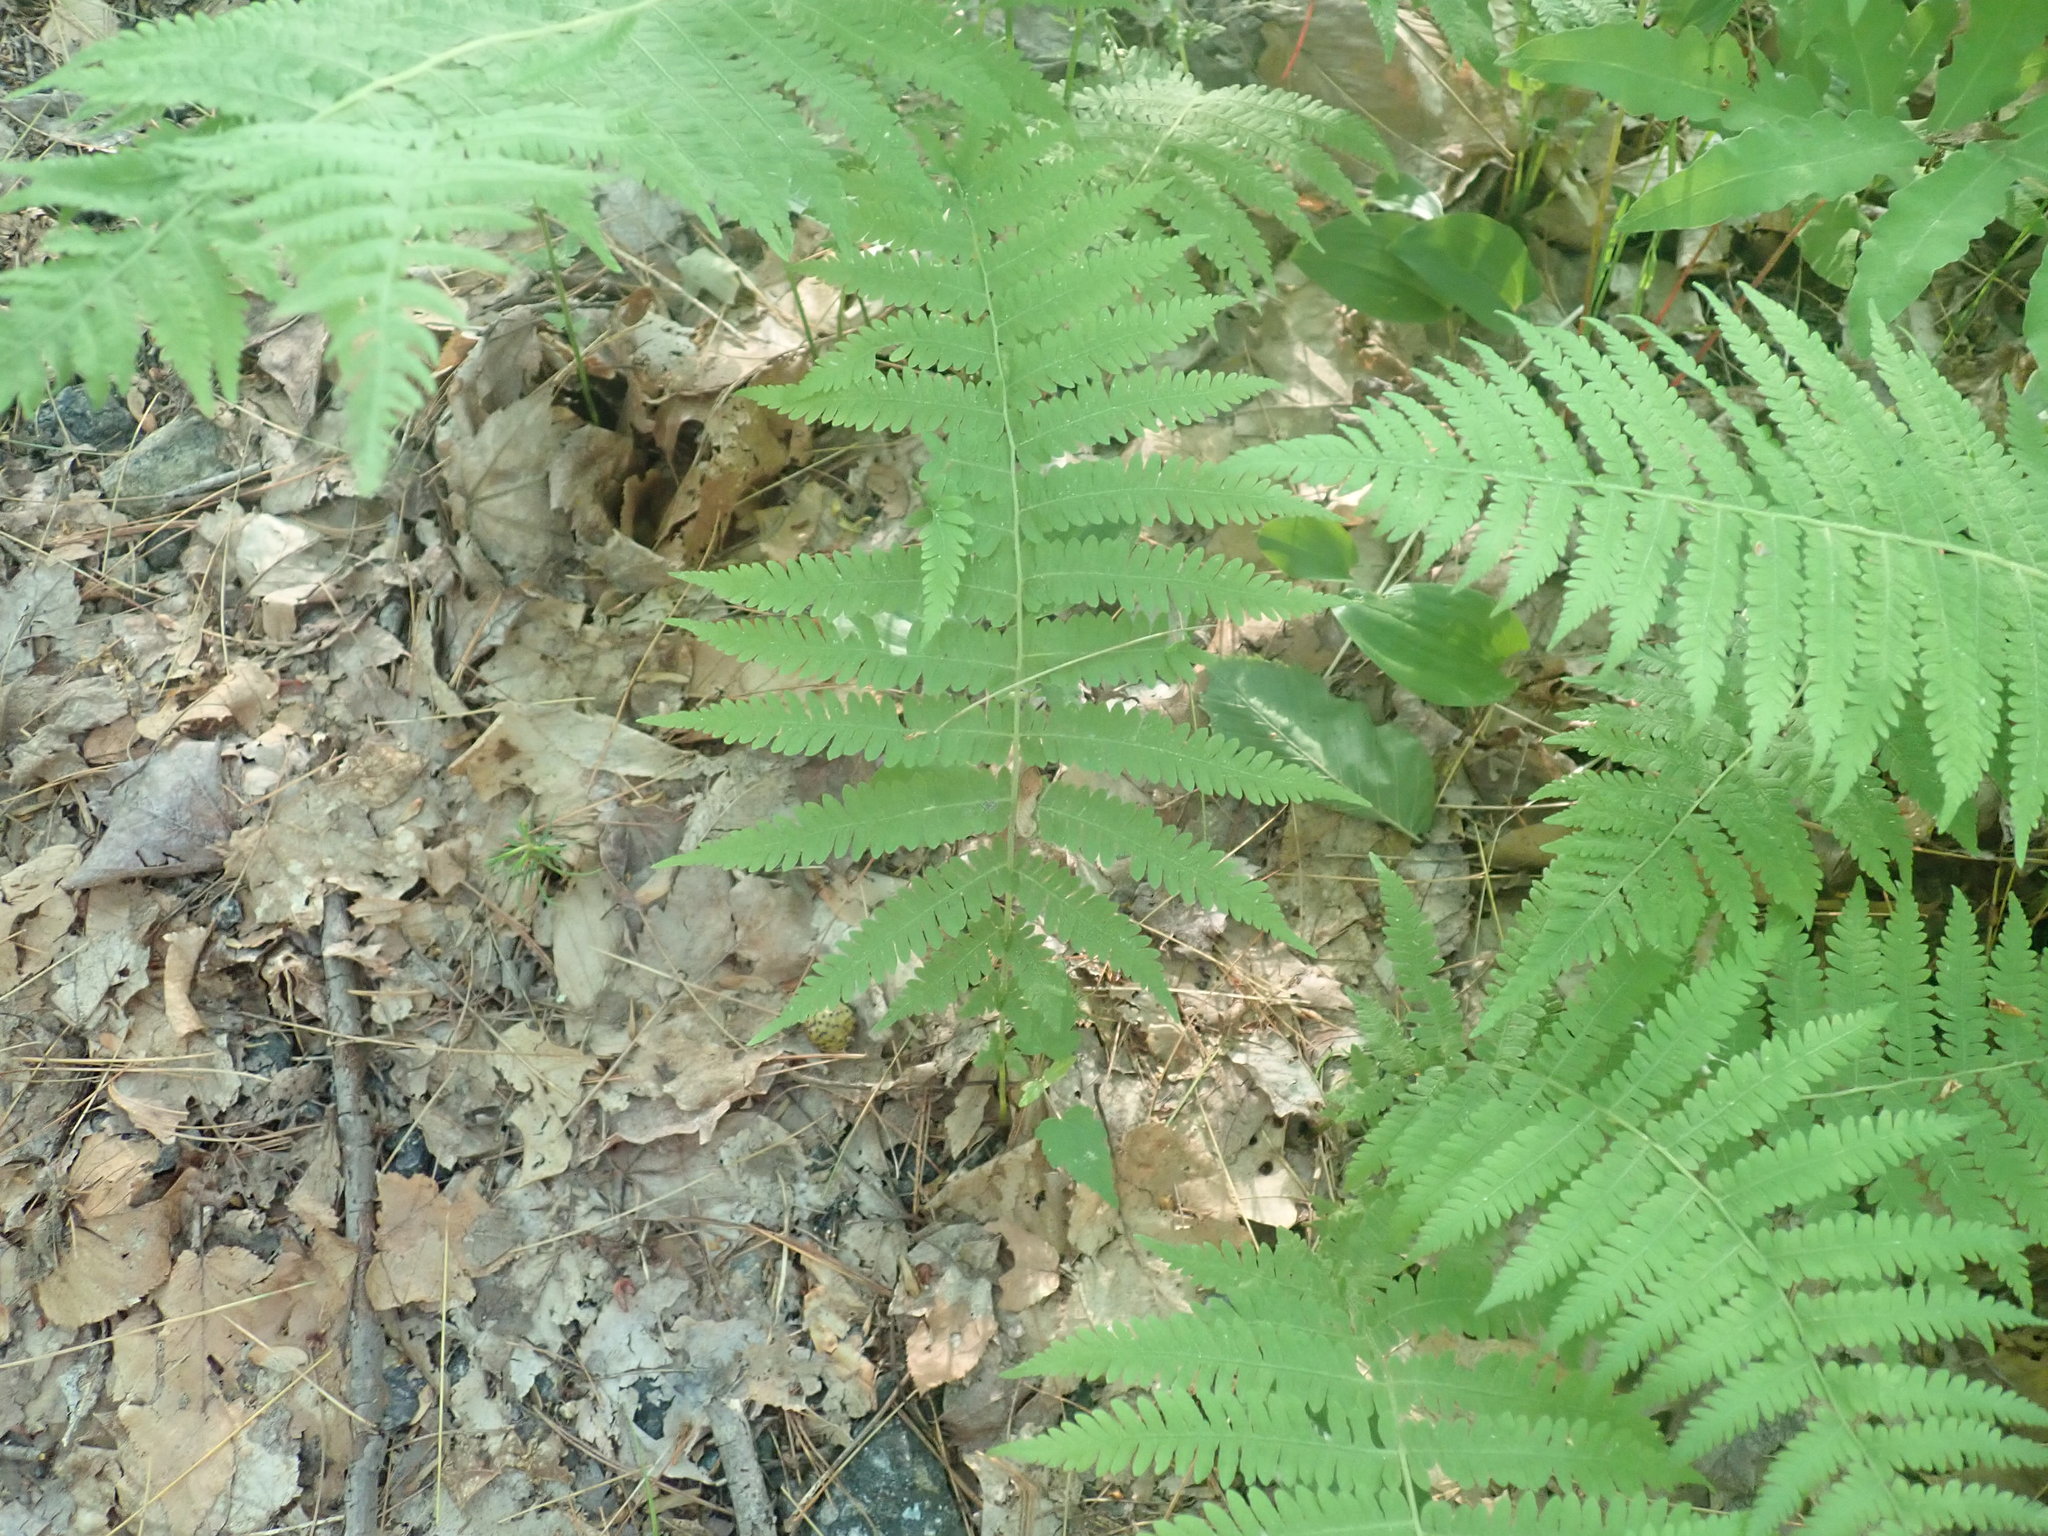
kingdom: Plantae
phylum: Tracheophyta
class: Polypodiopsida
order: Polypodiales
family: Thelypteridaceae
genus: Amauropelta
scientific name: Amauropelta noveboracensis
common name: New york fern
